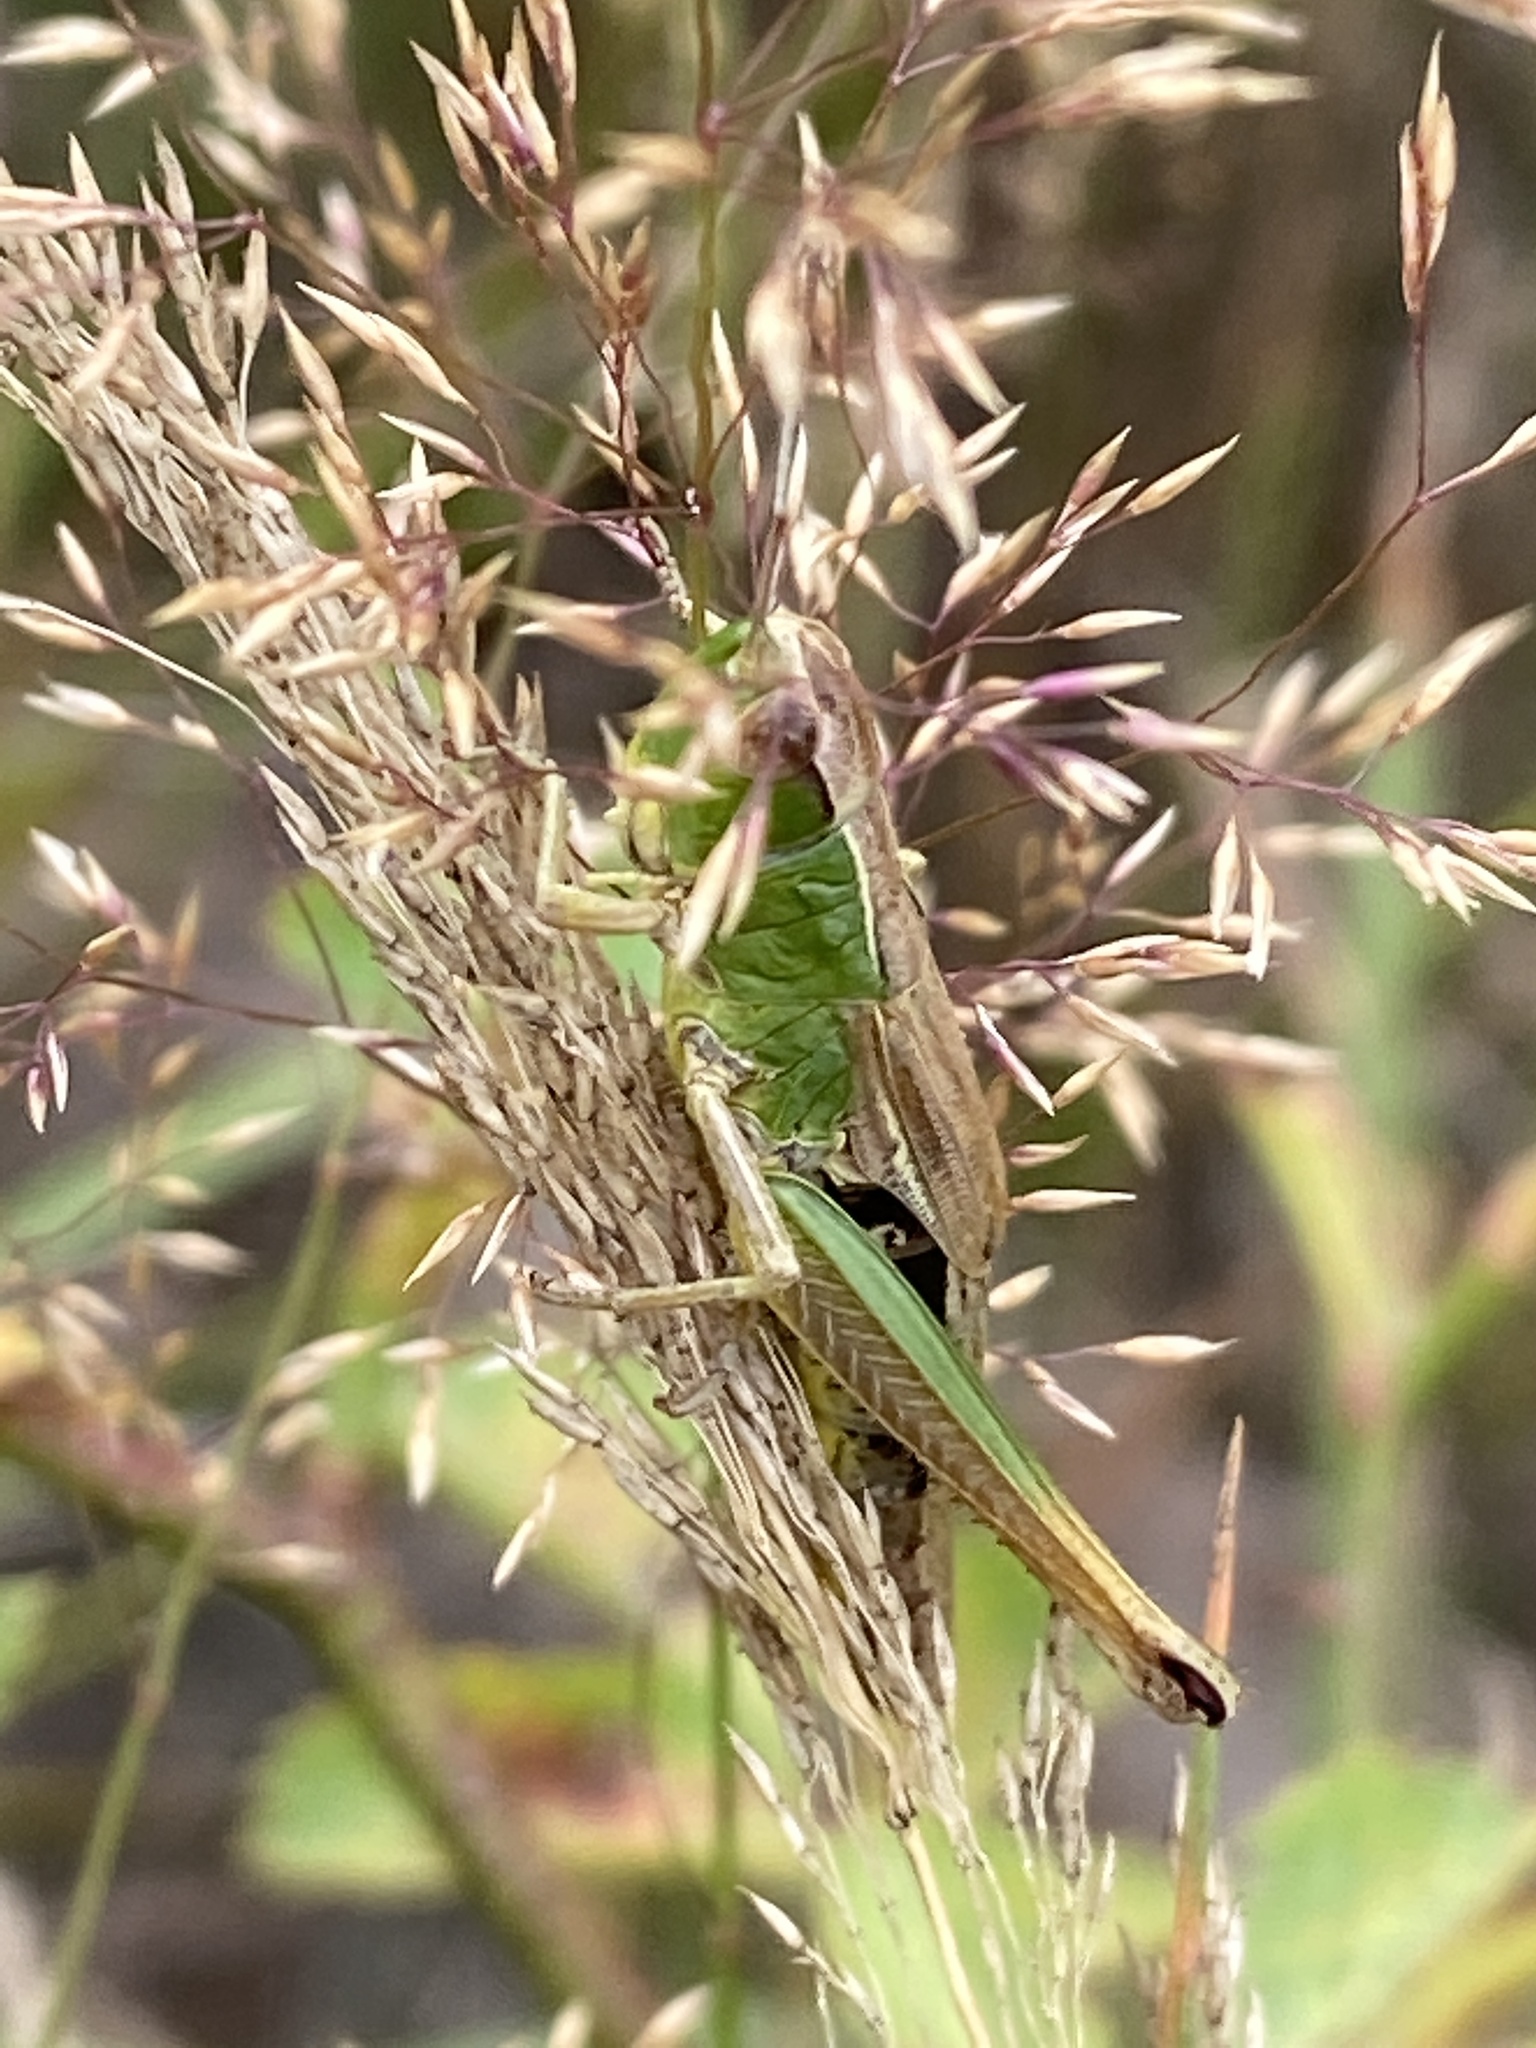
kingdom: Animalia
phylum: Arthropoda
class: Insecta
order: Orthoptera
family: Acrididae
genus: Pseudochorthippus
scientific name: Pseudochorthippus parallelus
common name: Meadow grasshopper
